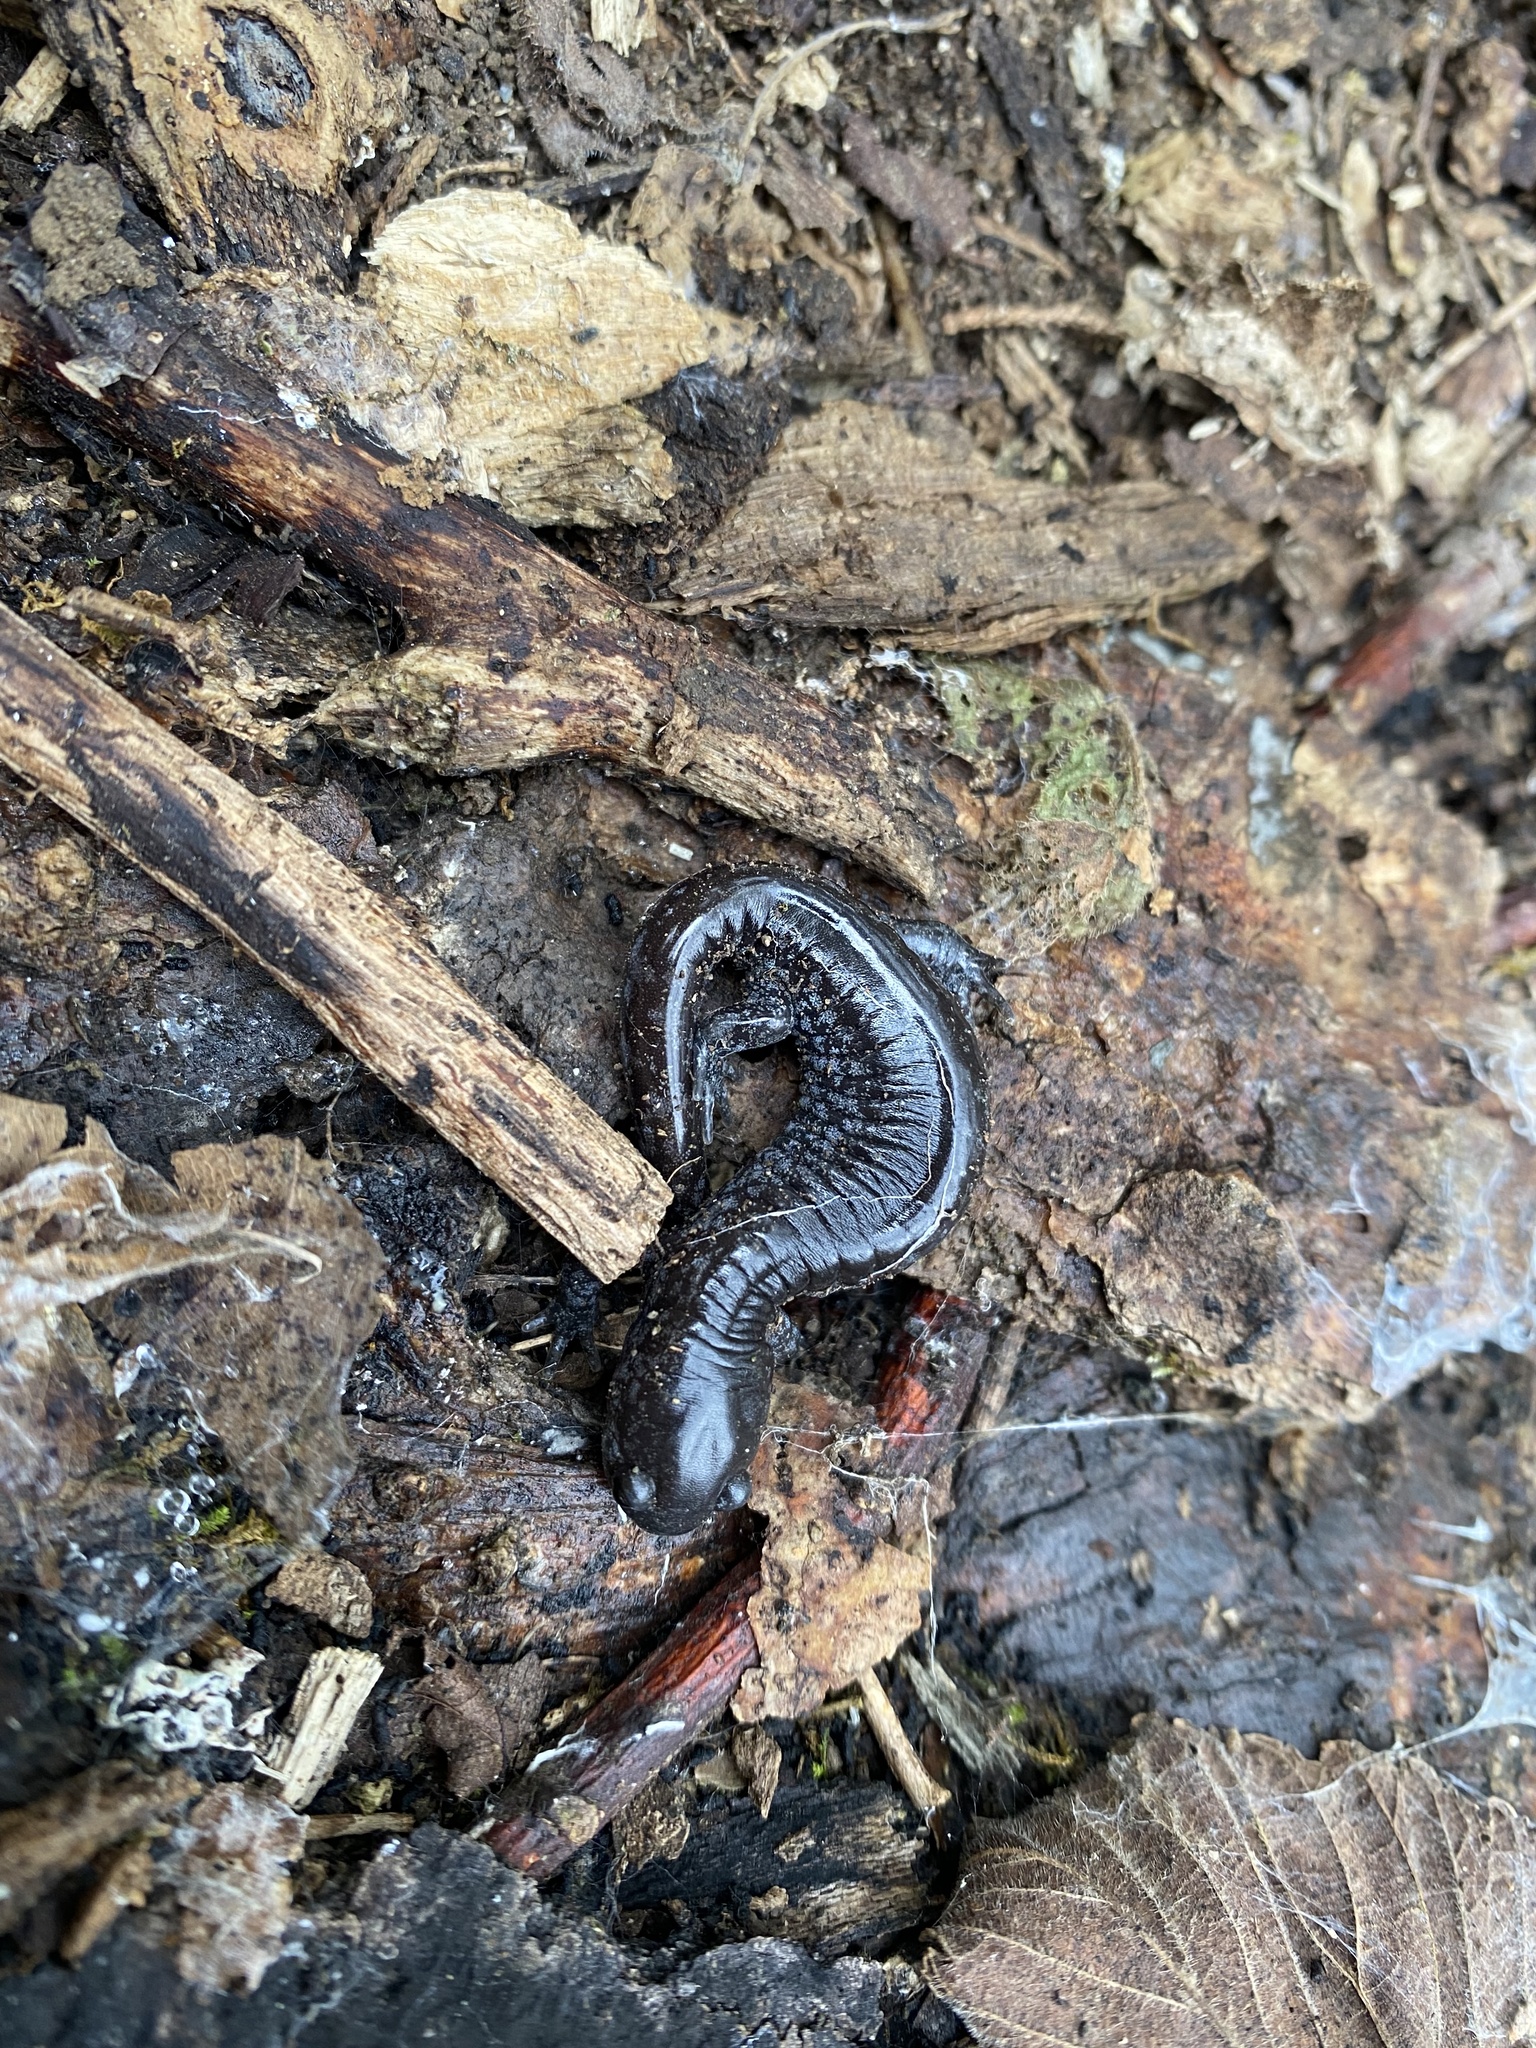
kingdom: Animalia
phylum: Chordata
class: Amphibia
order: Caudata
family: Ambystomatidae
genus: Ambystoma
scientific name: Ambystoma barbouri
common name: Streamside salamander
